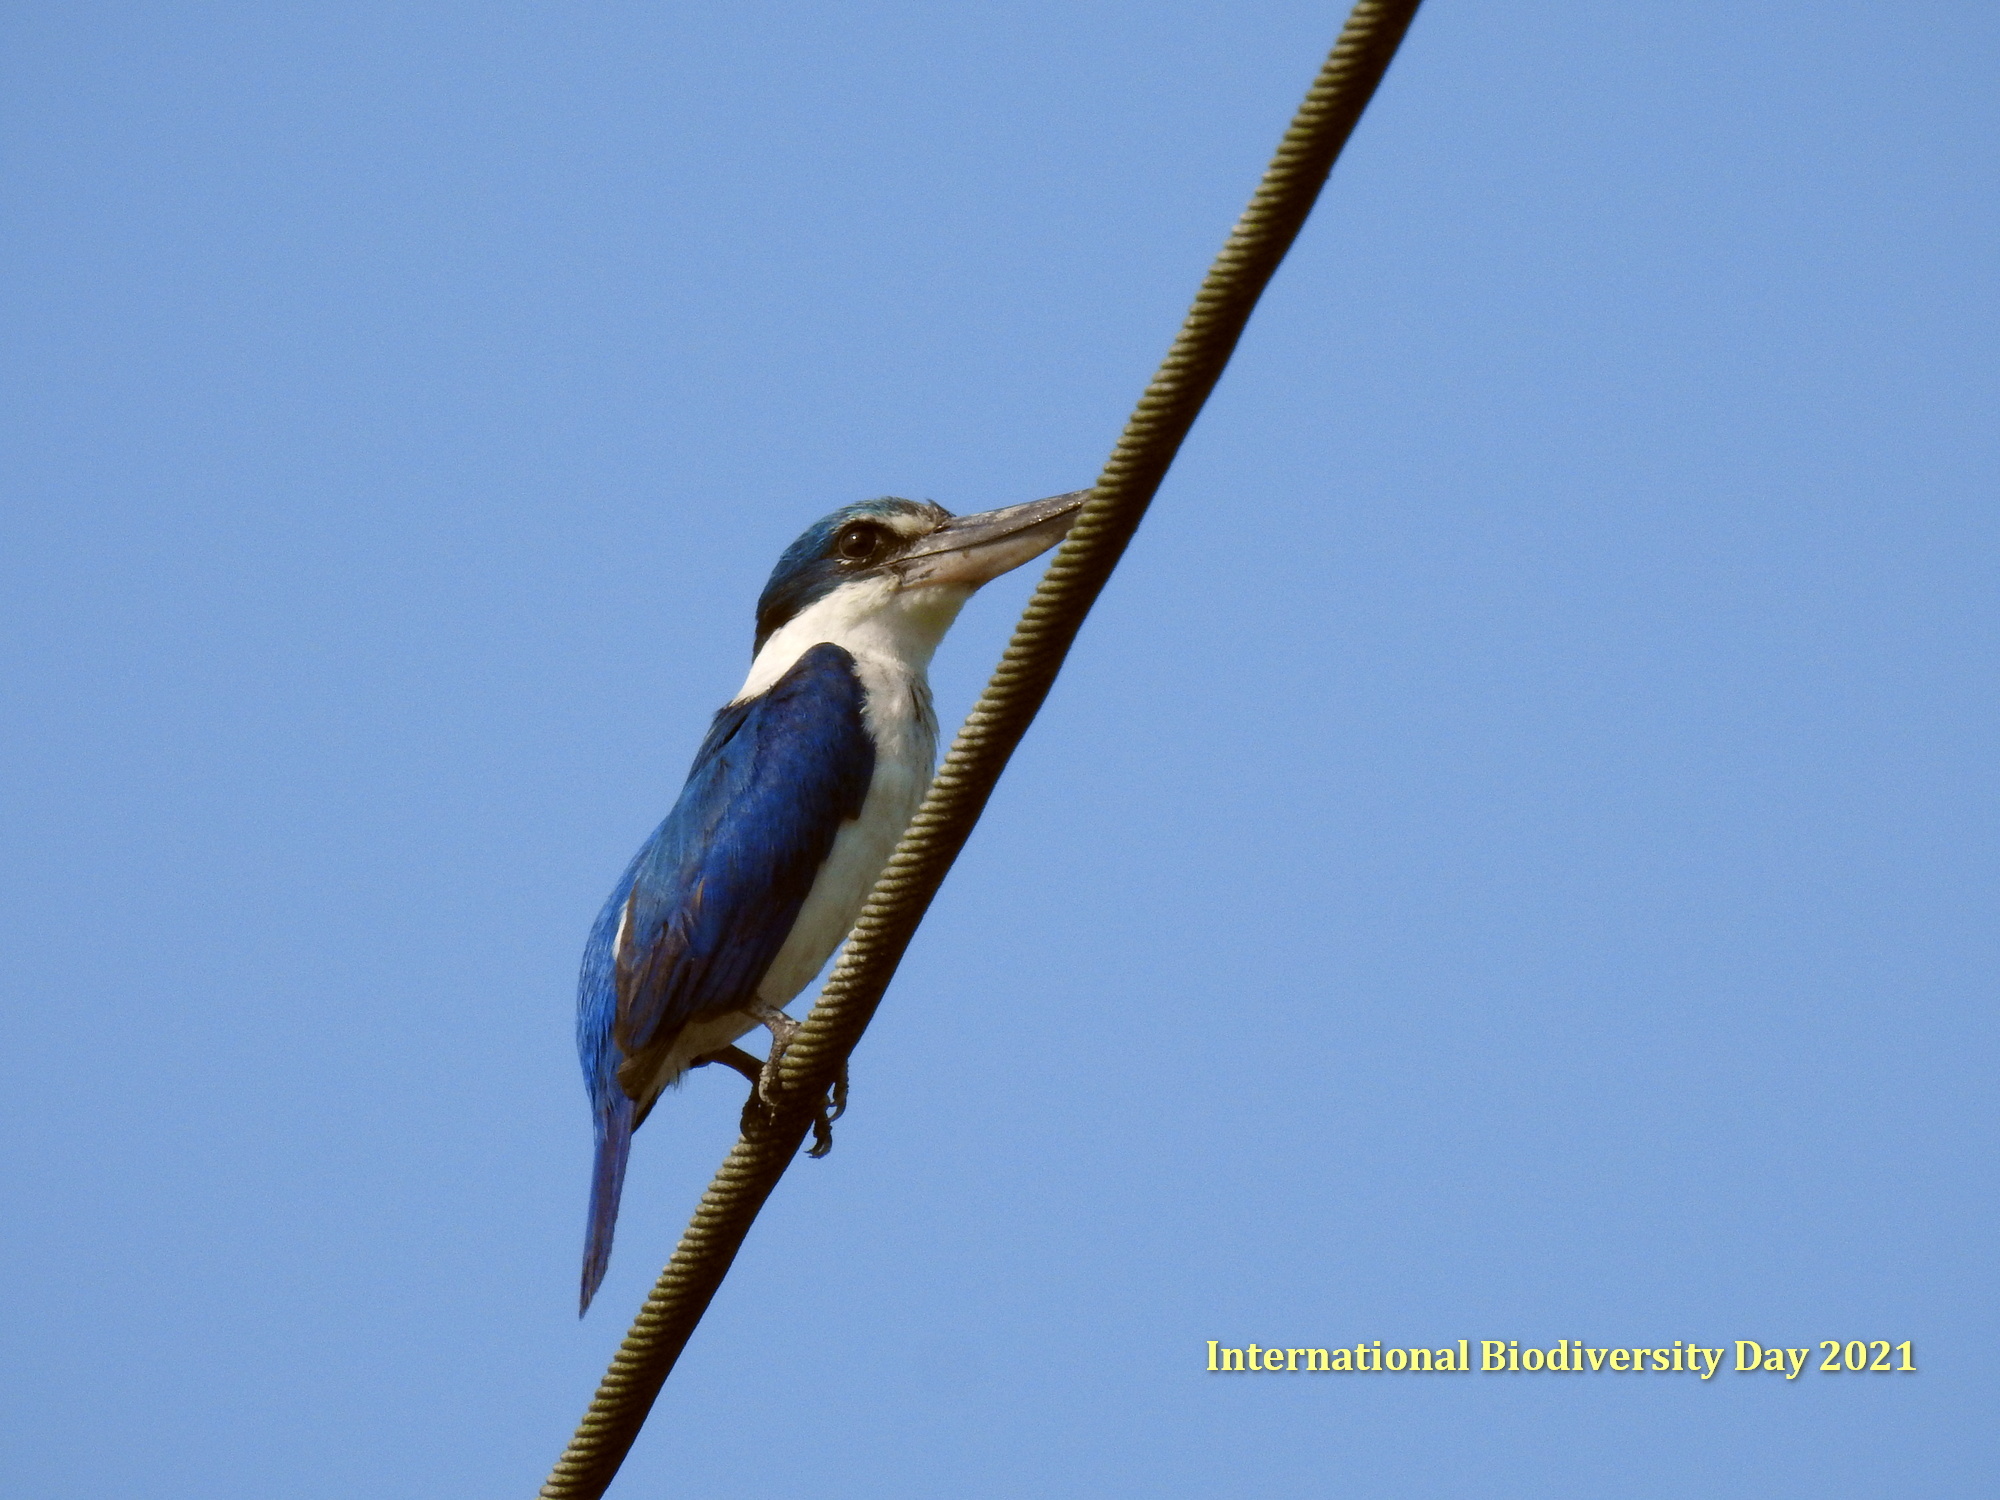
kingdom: Animalia
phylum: Chordata
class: Aves
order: Coraciiformes
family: Alcedinidae
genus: Todiramphus
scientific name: Todiramphus chloris
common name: Collared kingfisher
